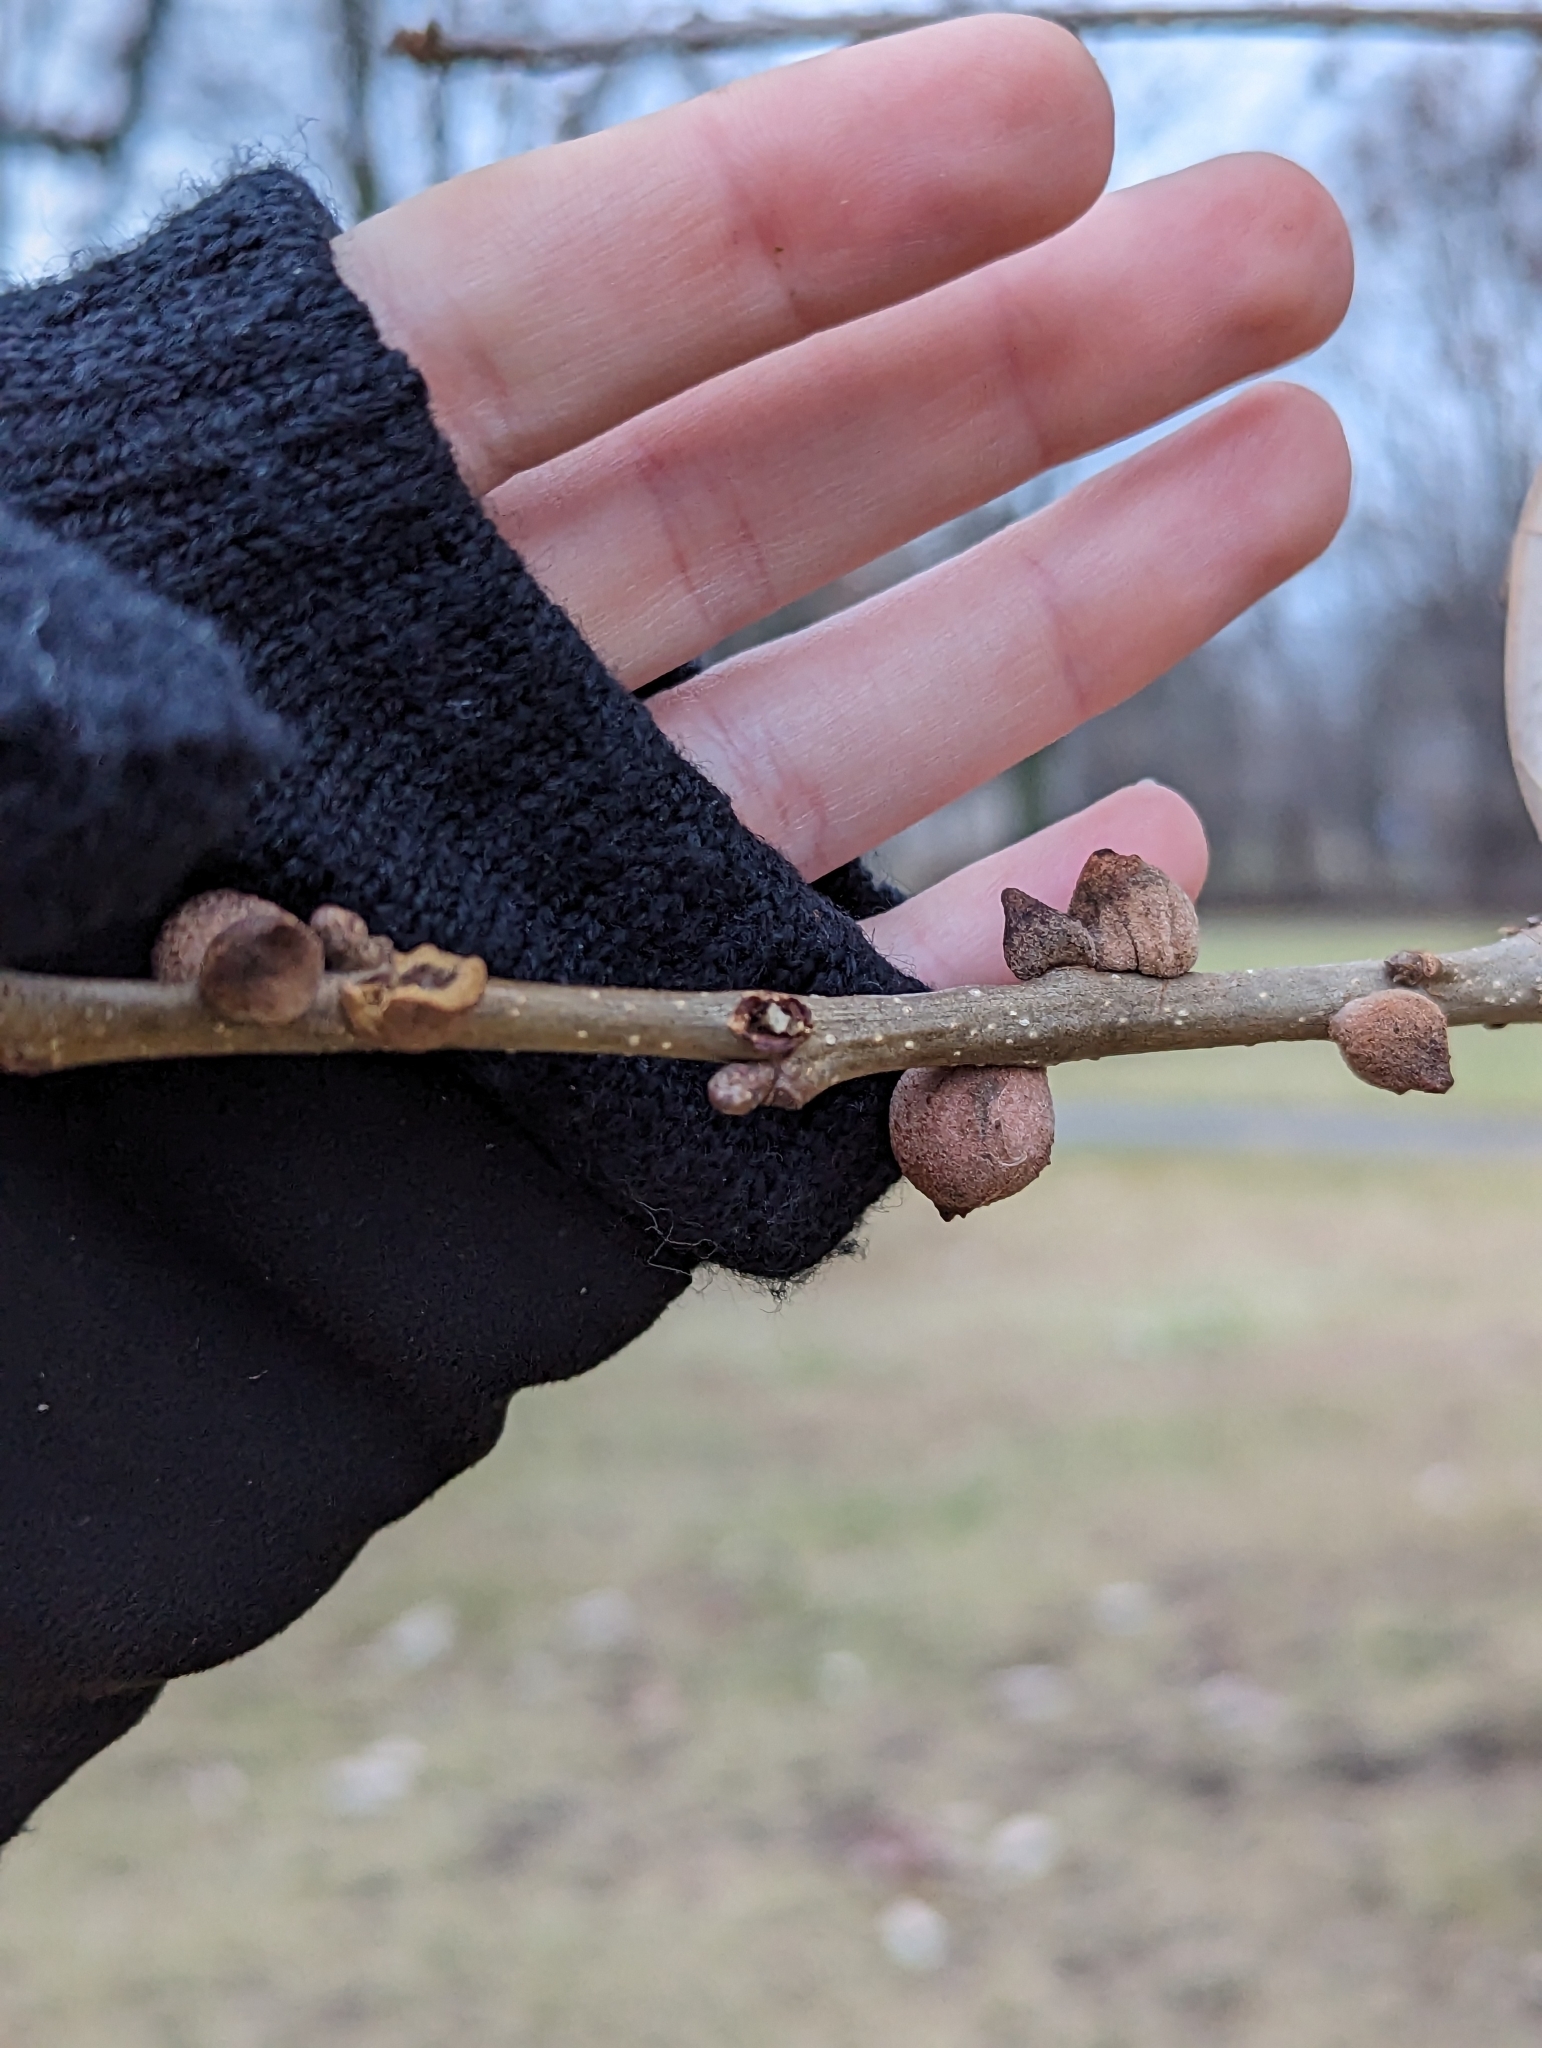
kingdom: Animalia
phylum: Arthropoda
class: Insecta
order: Hymenoptera
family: Cynipidae
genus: Disholcaspis
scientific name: Disholcaspis
